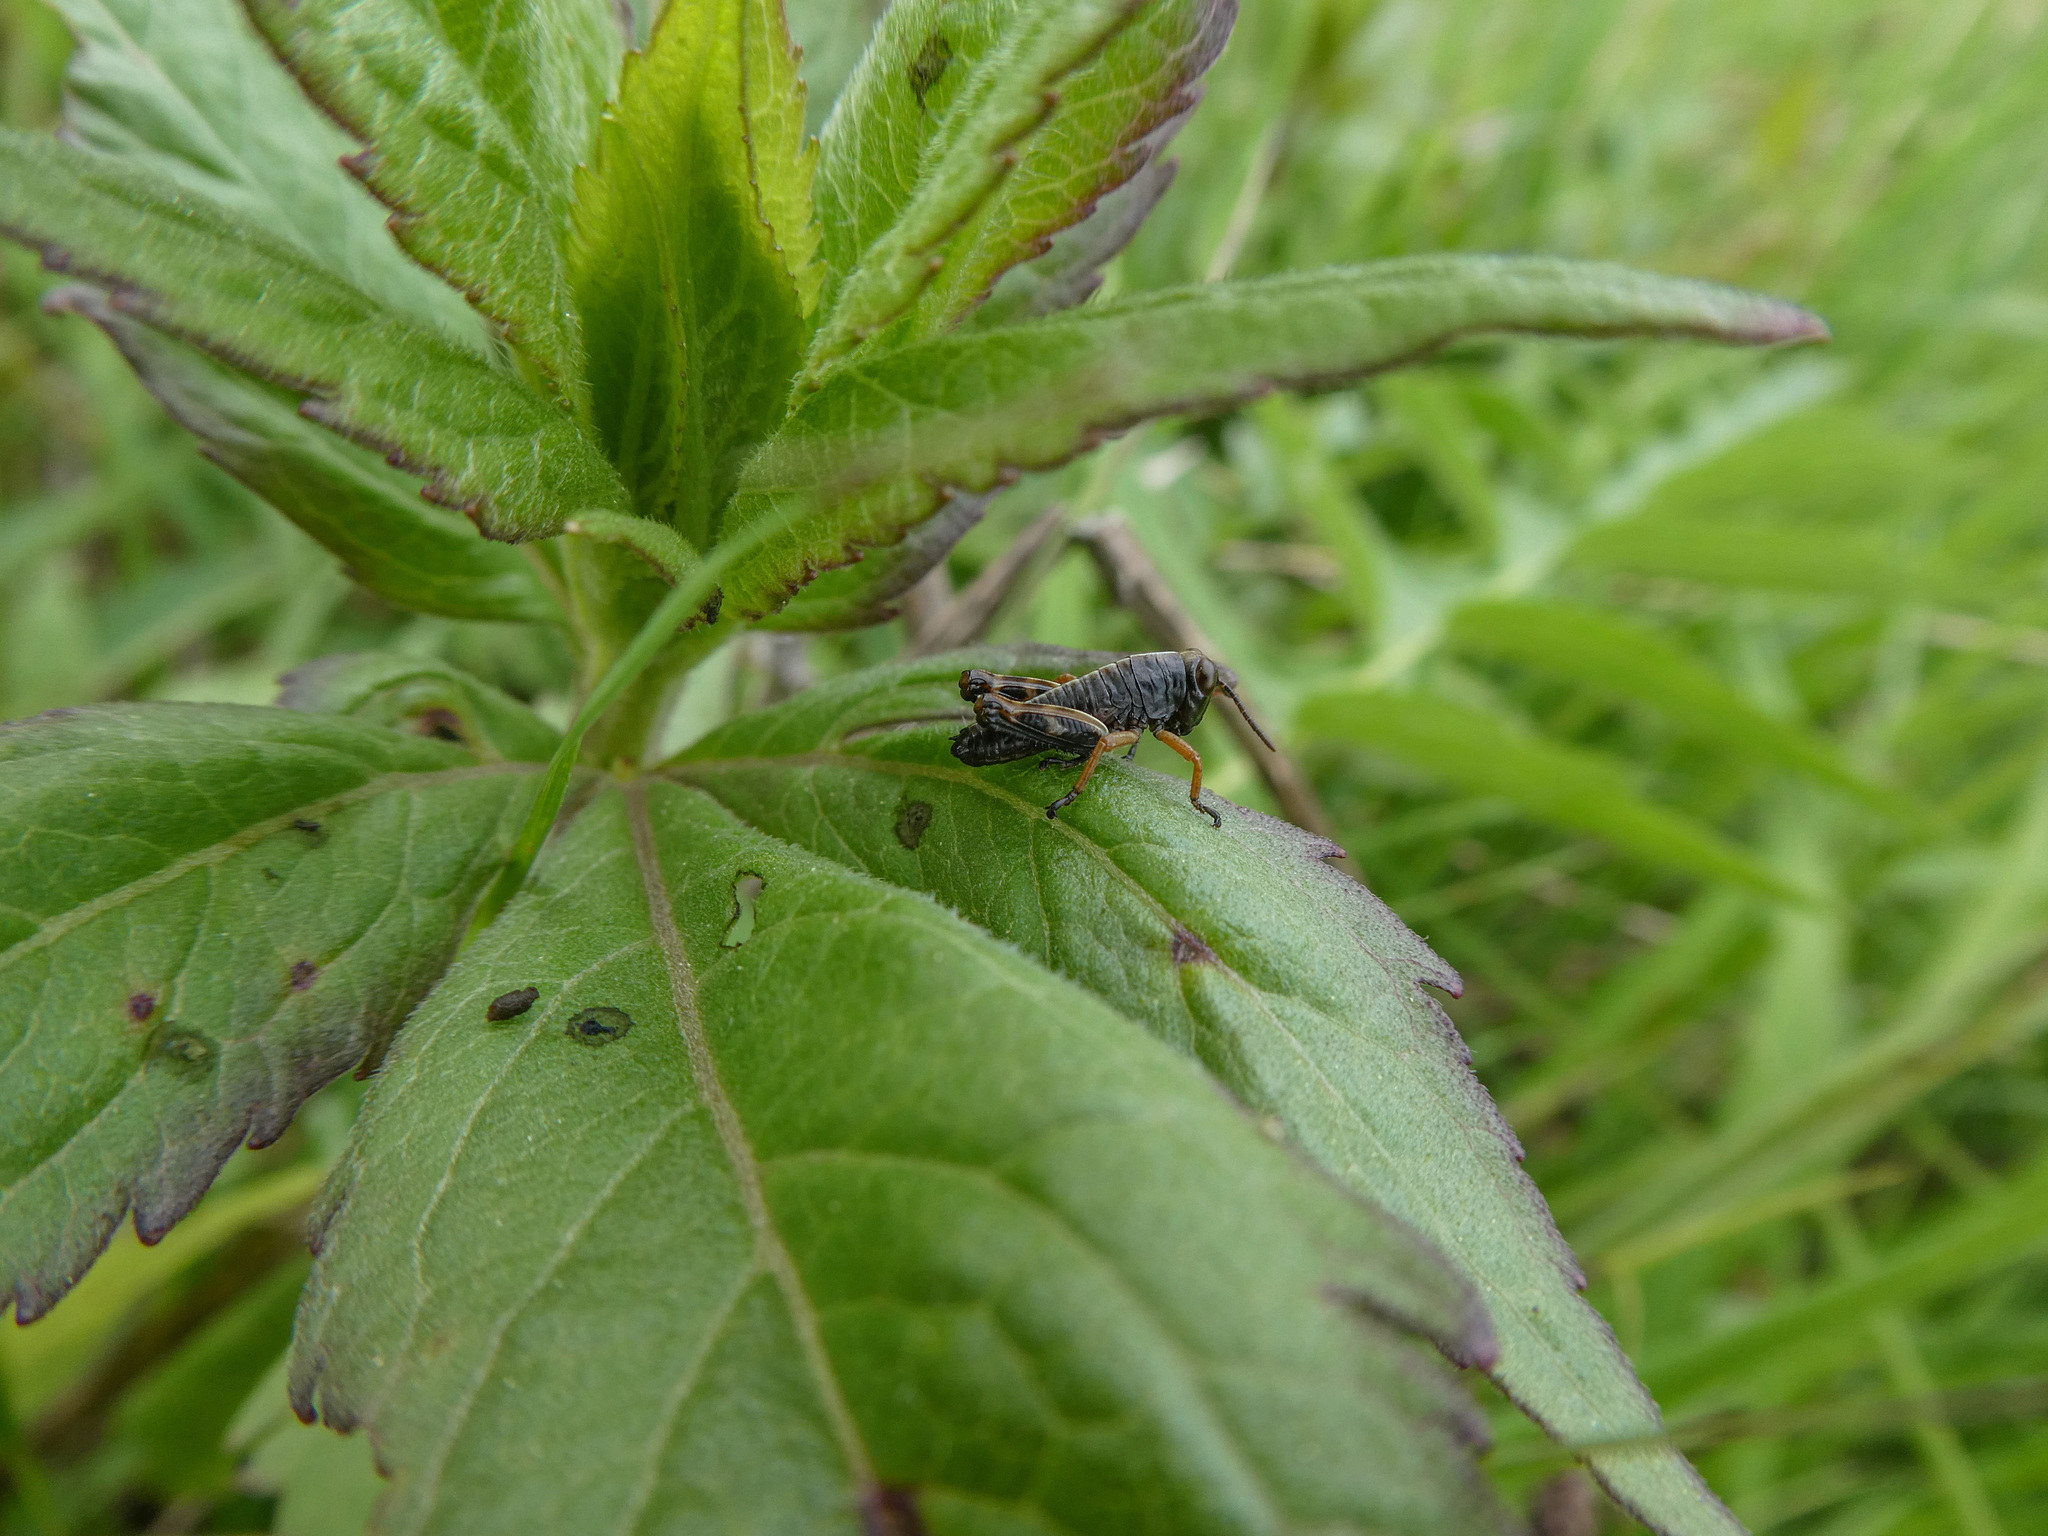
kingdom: Animalia
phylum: Arthropoda
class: Insecta
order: Orthoptera
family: Acrididae
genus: Miramella
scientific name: Miramella alpina
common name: Green mountain grasshopper
